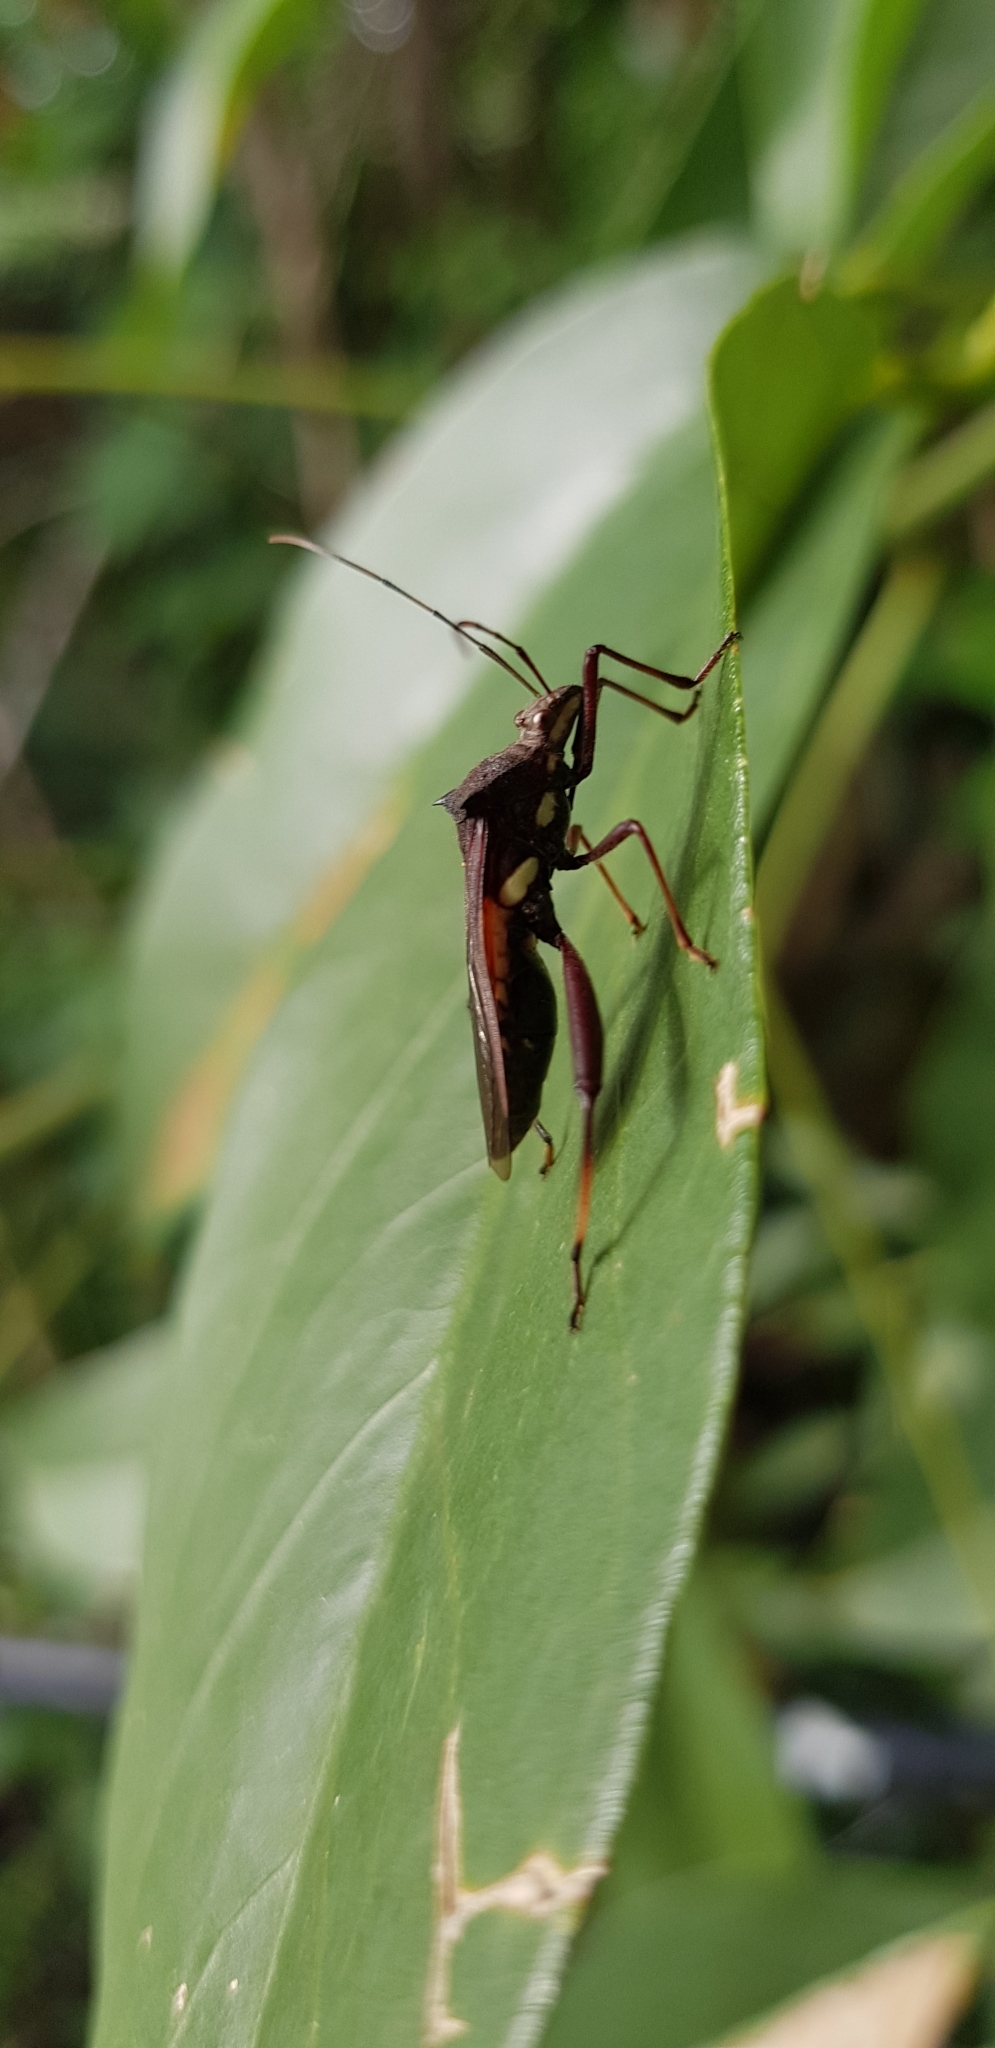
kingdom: Animalia
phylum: Arthropoda
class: Insecta
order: Hemiptera
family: Alydidae
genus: Riptortus
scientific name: Riptortus serripes
